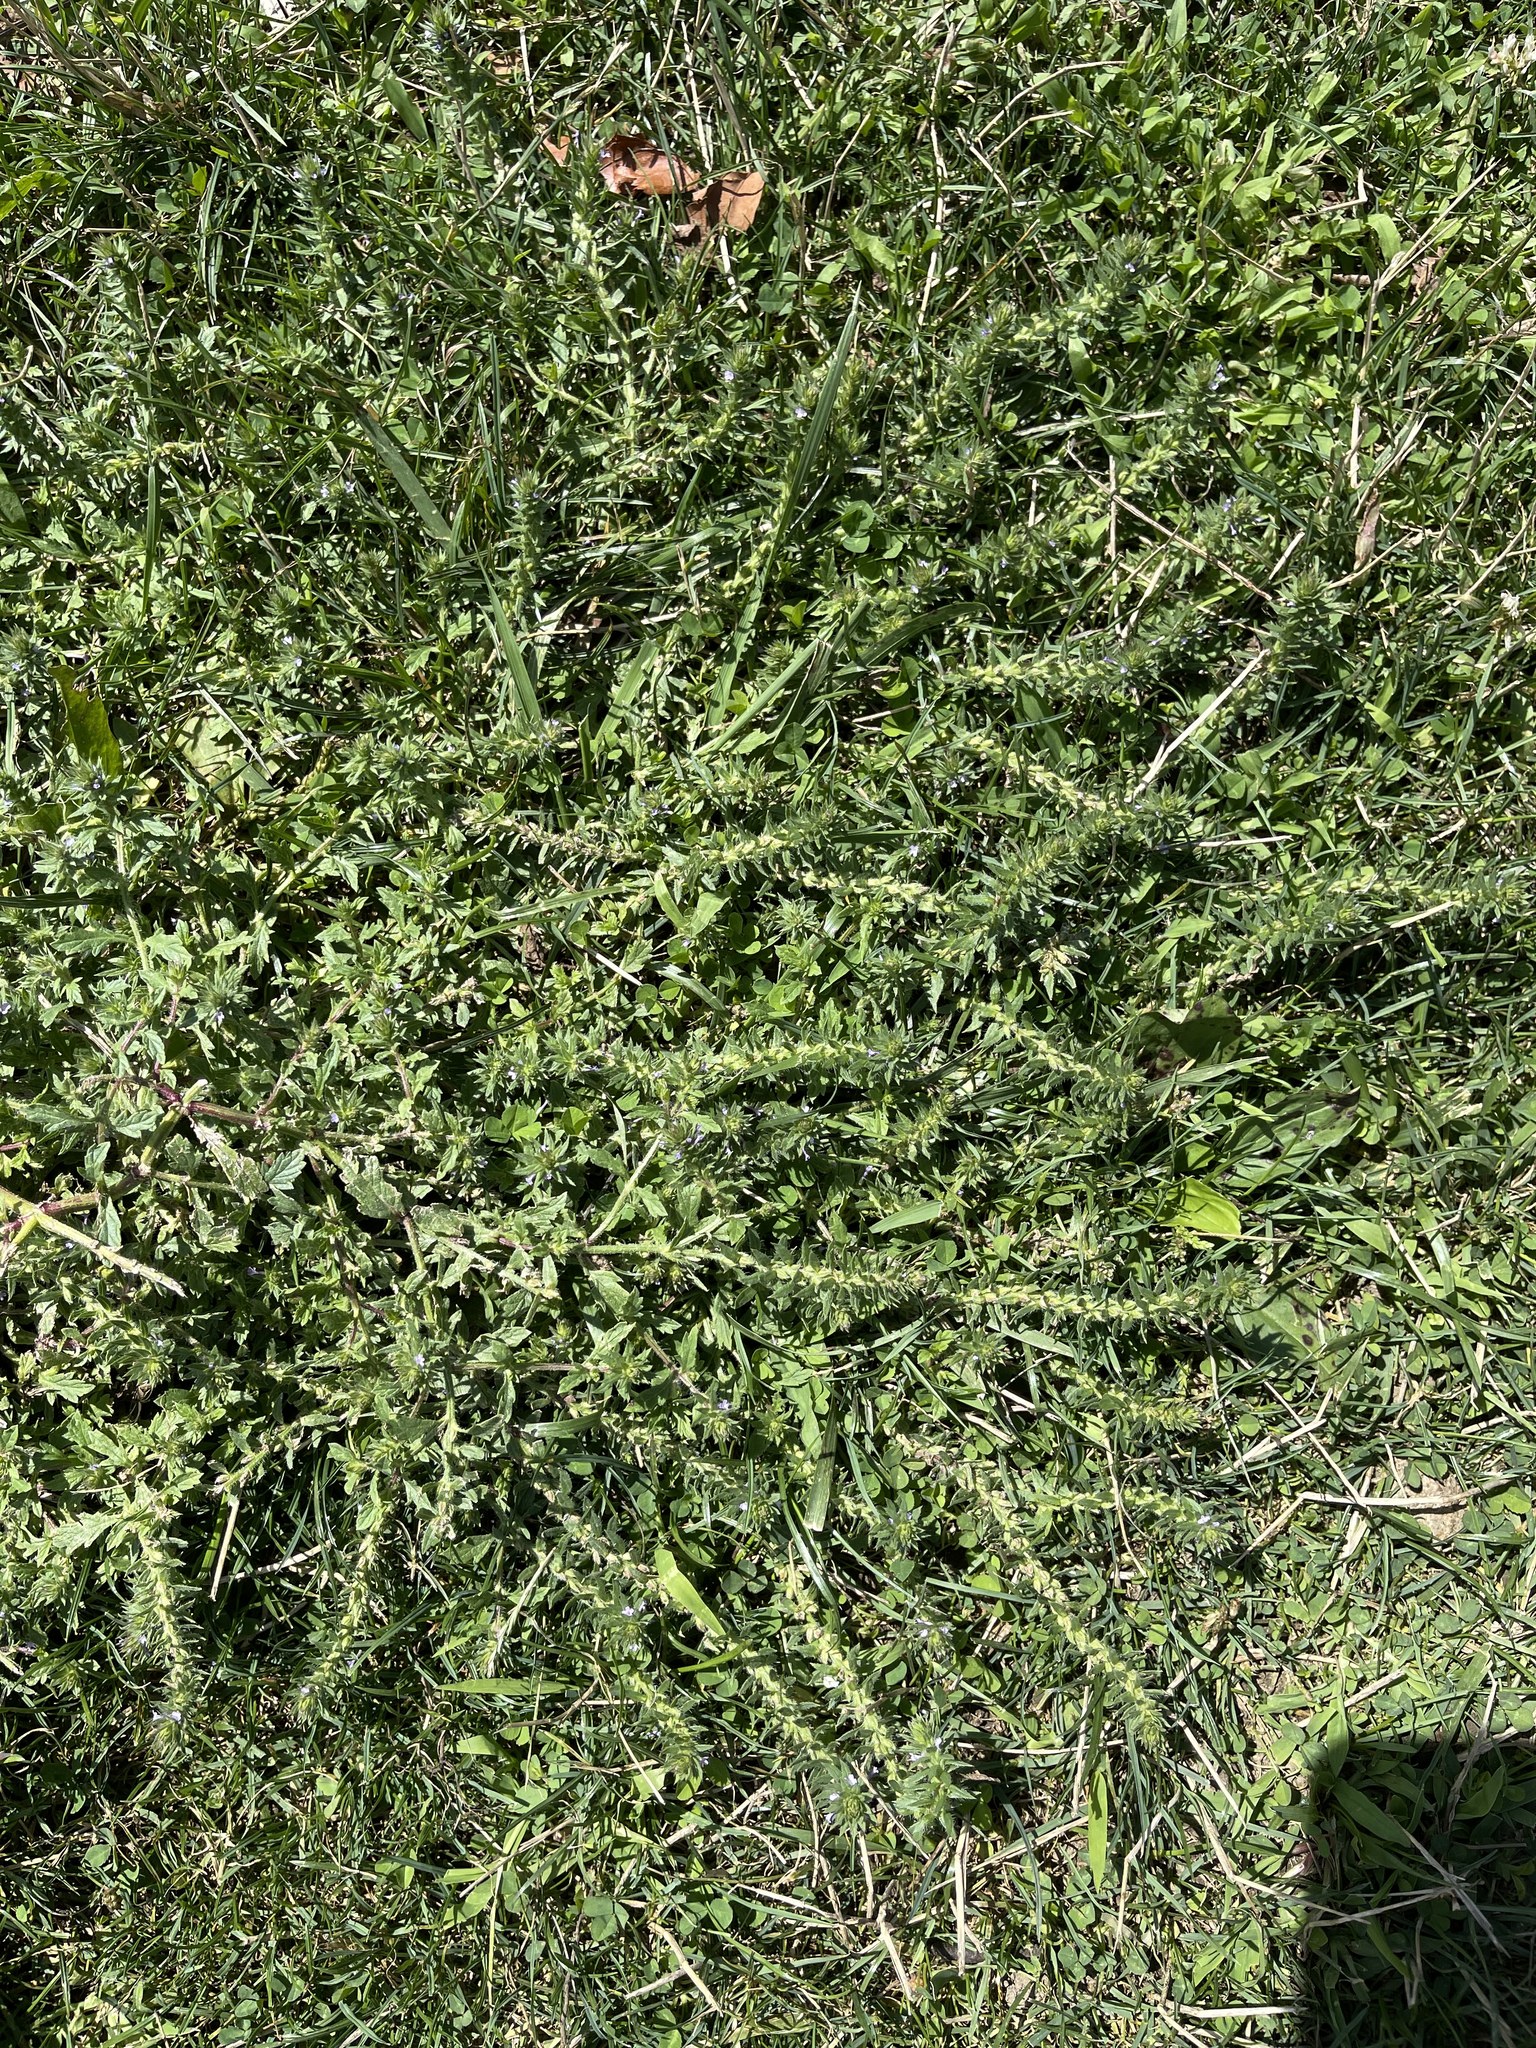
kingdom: Plantae
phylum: Tracheophyta
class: Magnoliopsida
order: Lamiales
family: Verbenaceae
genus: Verbena
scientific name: Verbena bracteata
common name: Bracted vervain
